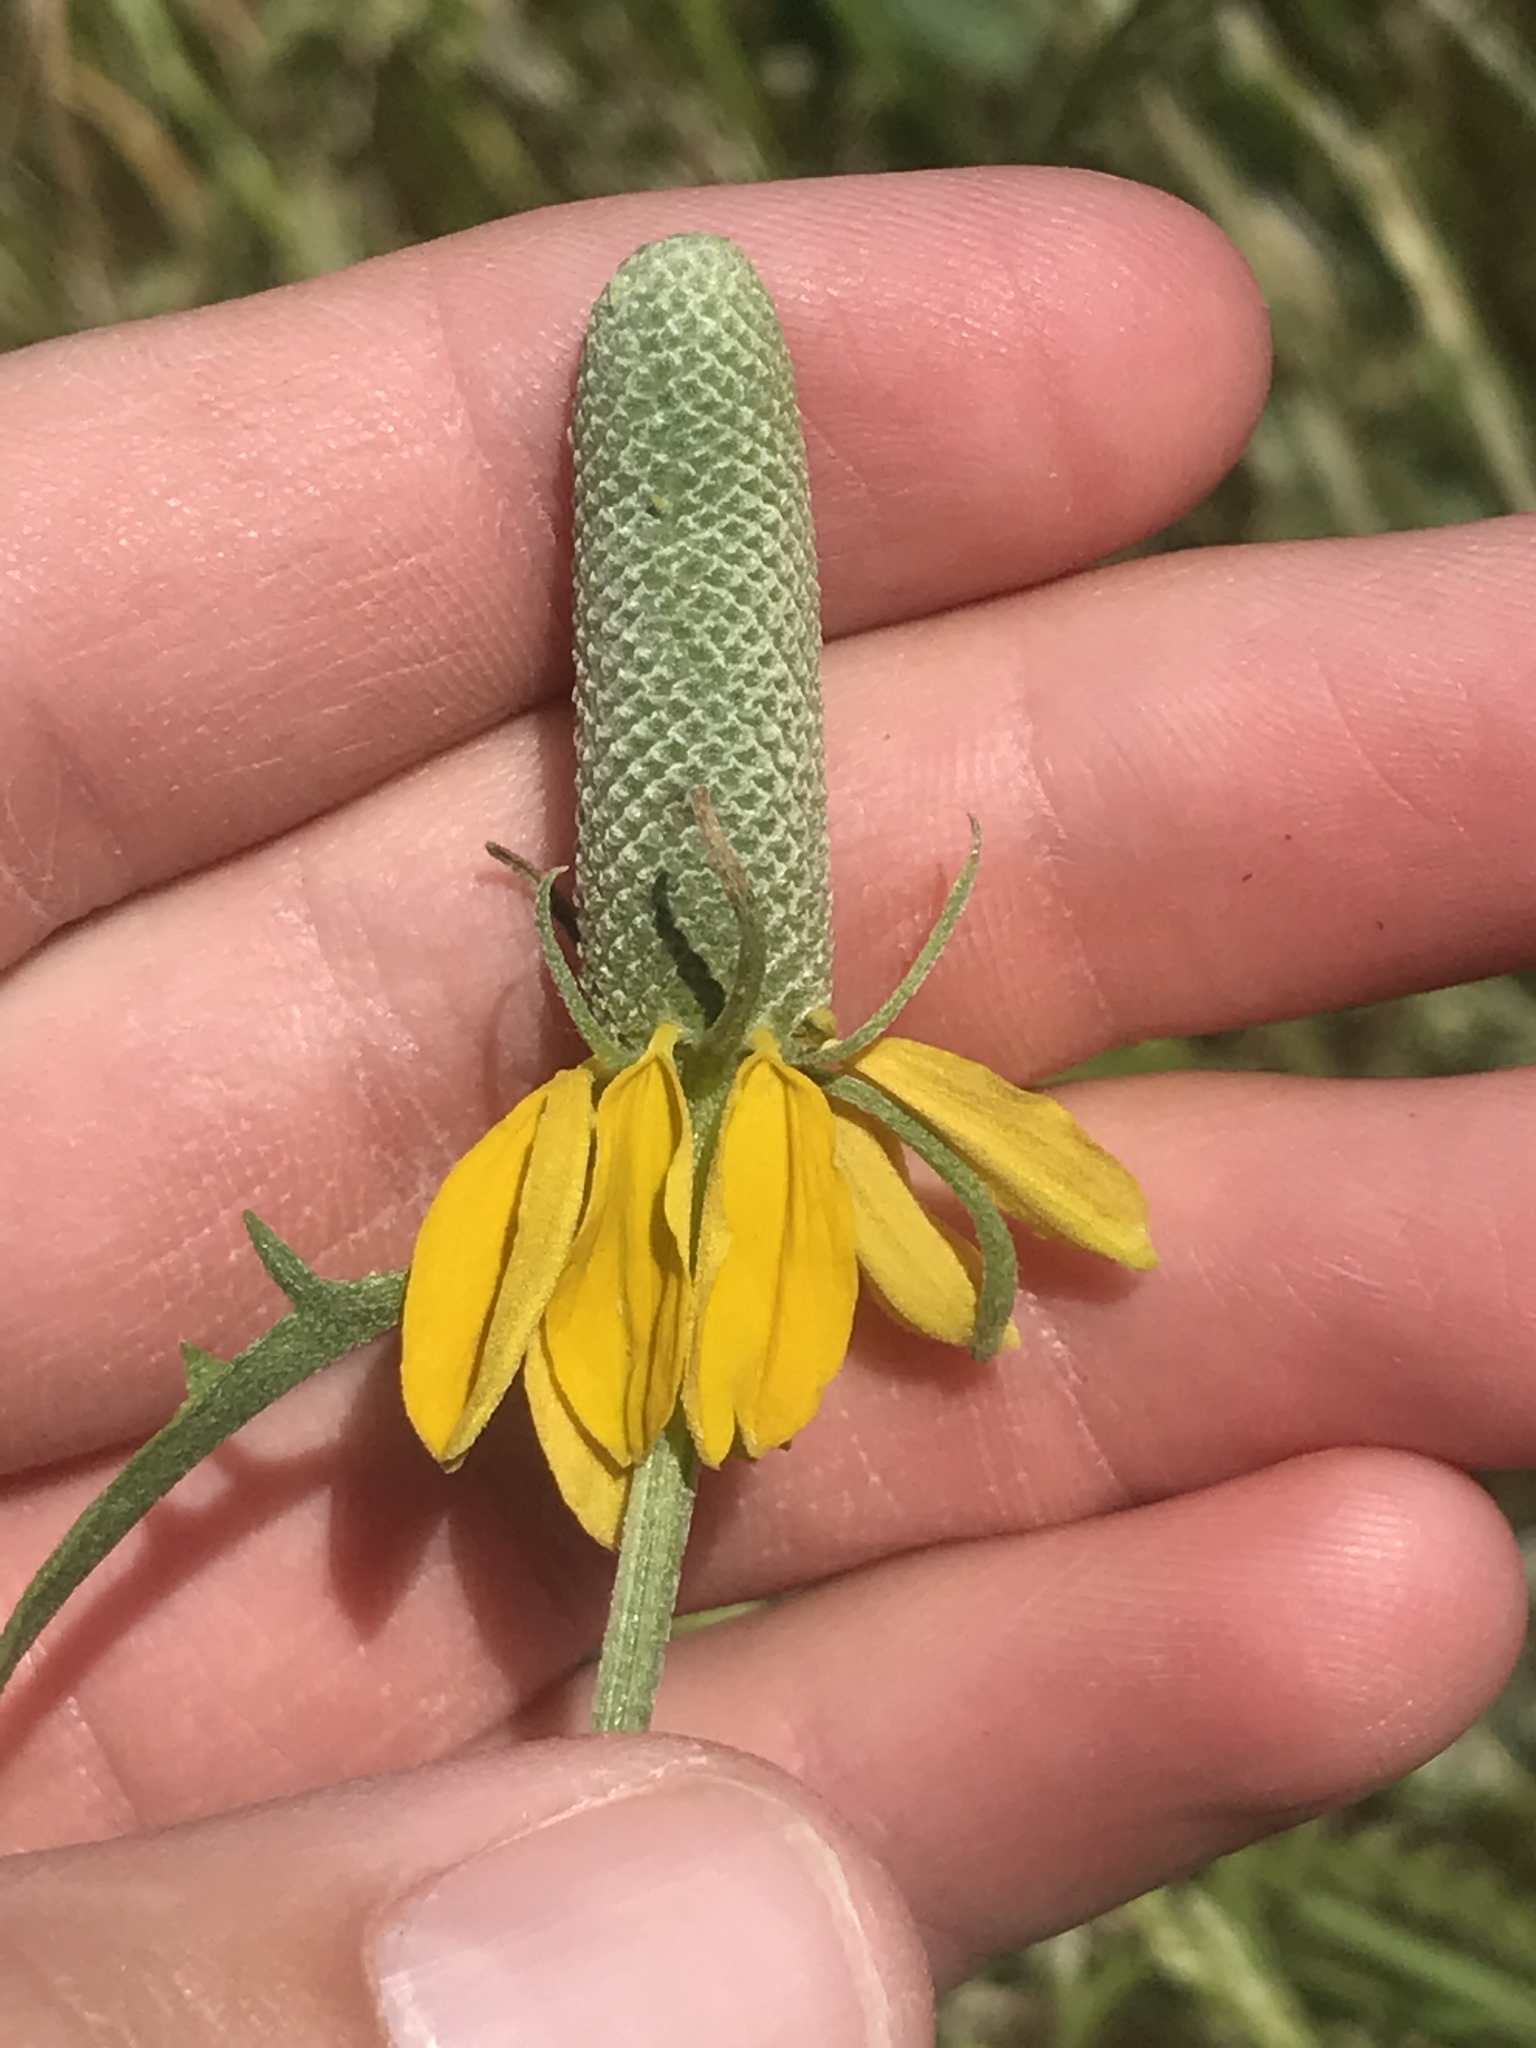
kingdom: Plantae
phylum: Tracheophyta
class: Magnoliopsida
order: Asterales
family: Asteraceae
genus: Ratibida
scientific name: Ratibida columnifera
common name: Prairie coneflower
